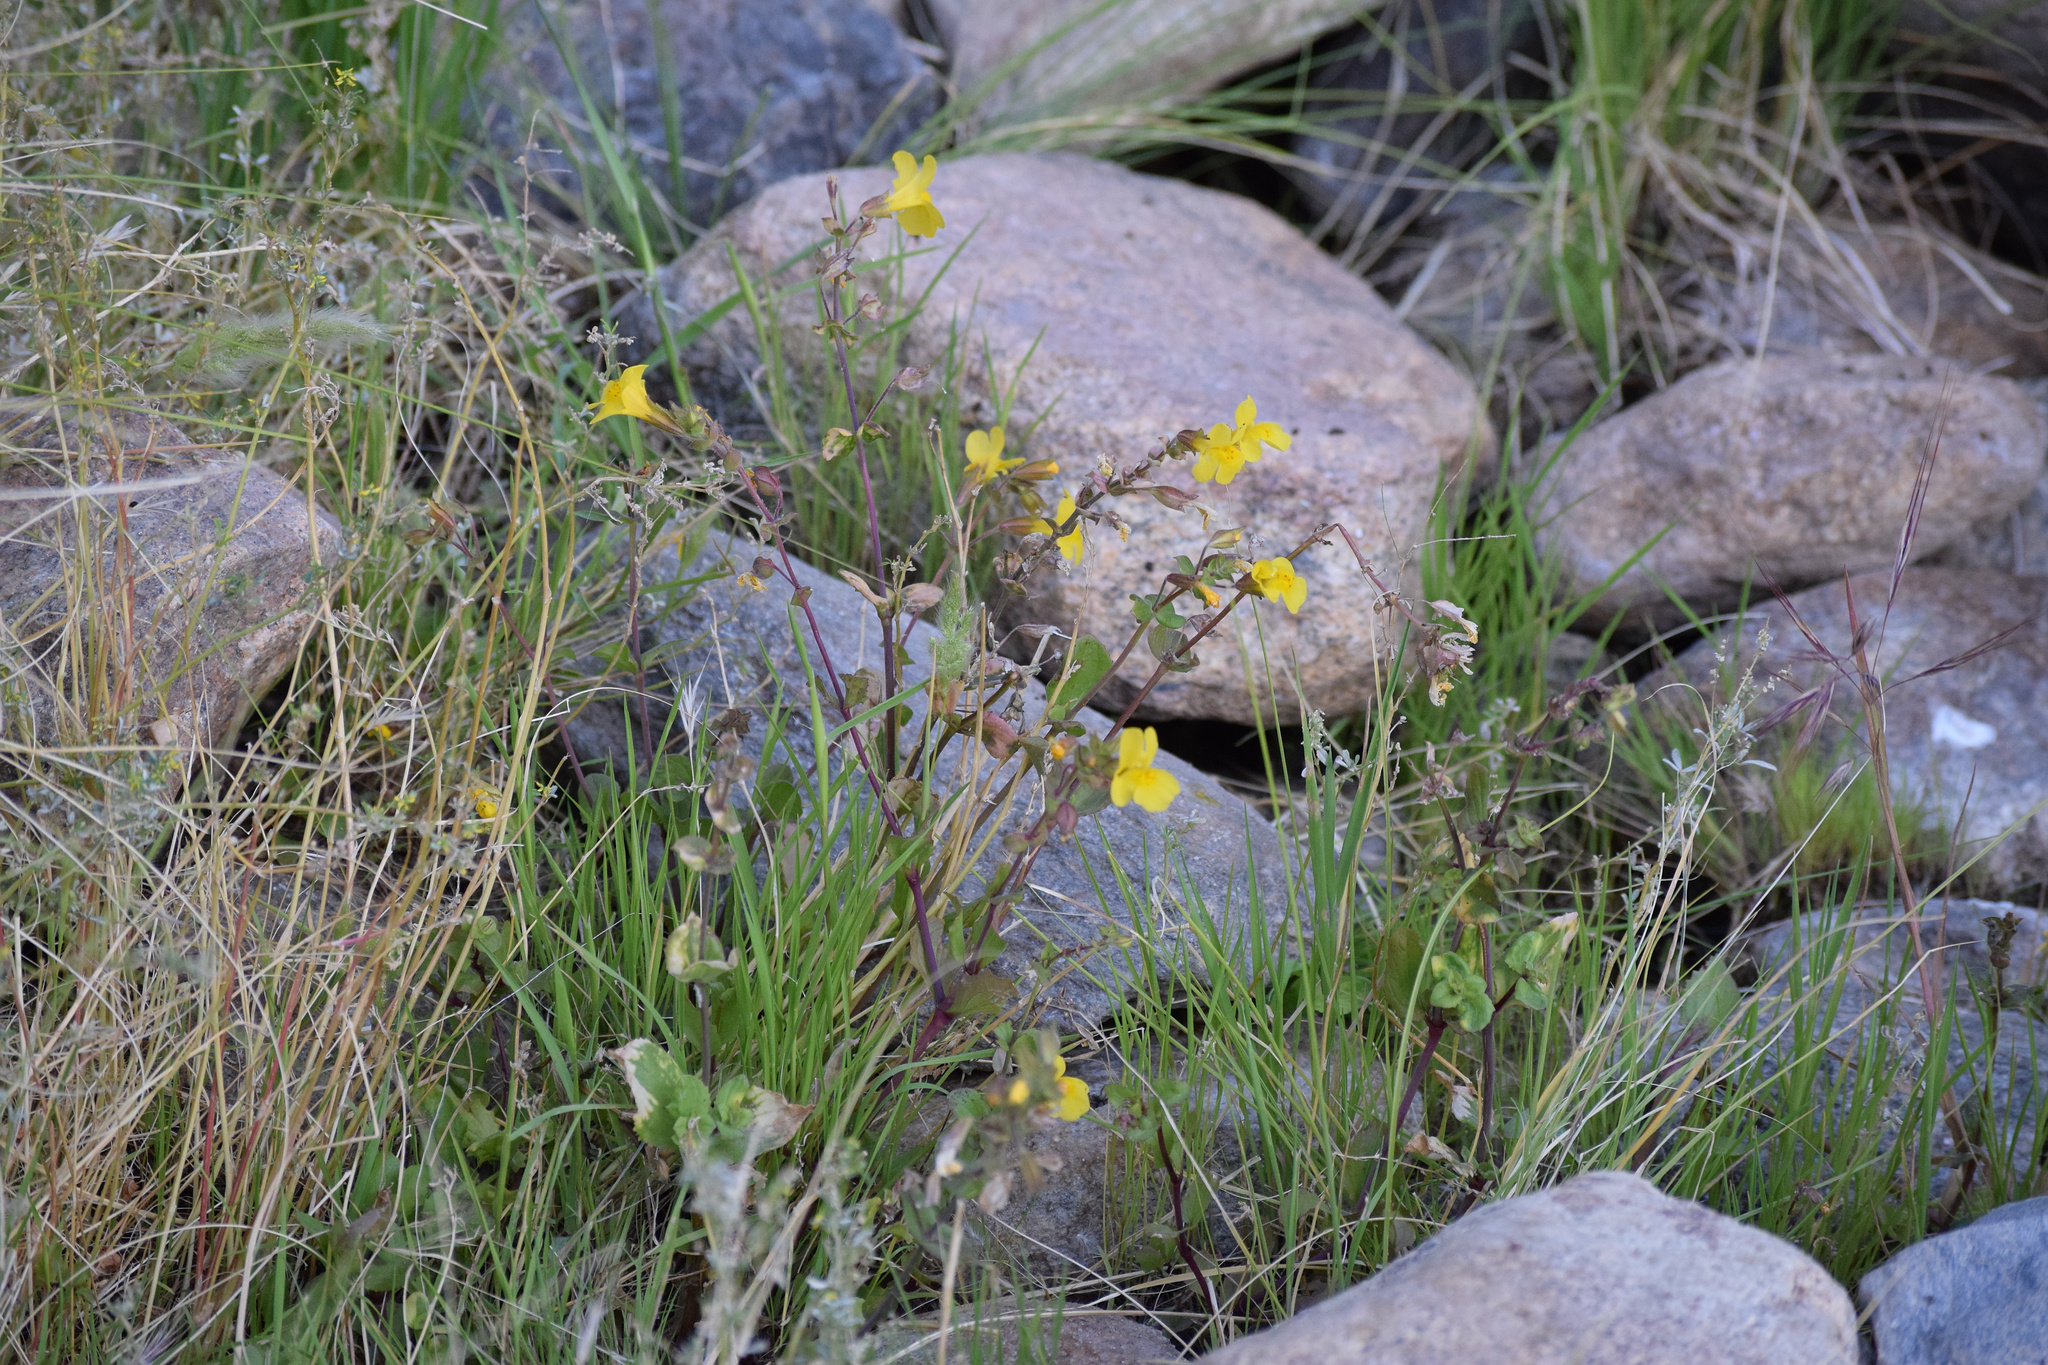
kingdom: Plantae
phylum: Tracheophyta
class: Magnoliopsida
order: Lamiales
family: Phrymaceae
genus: Erythranthe
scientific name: Erythranthe guttata
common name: Monkeyflower
